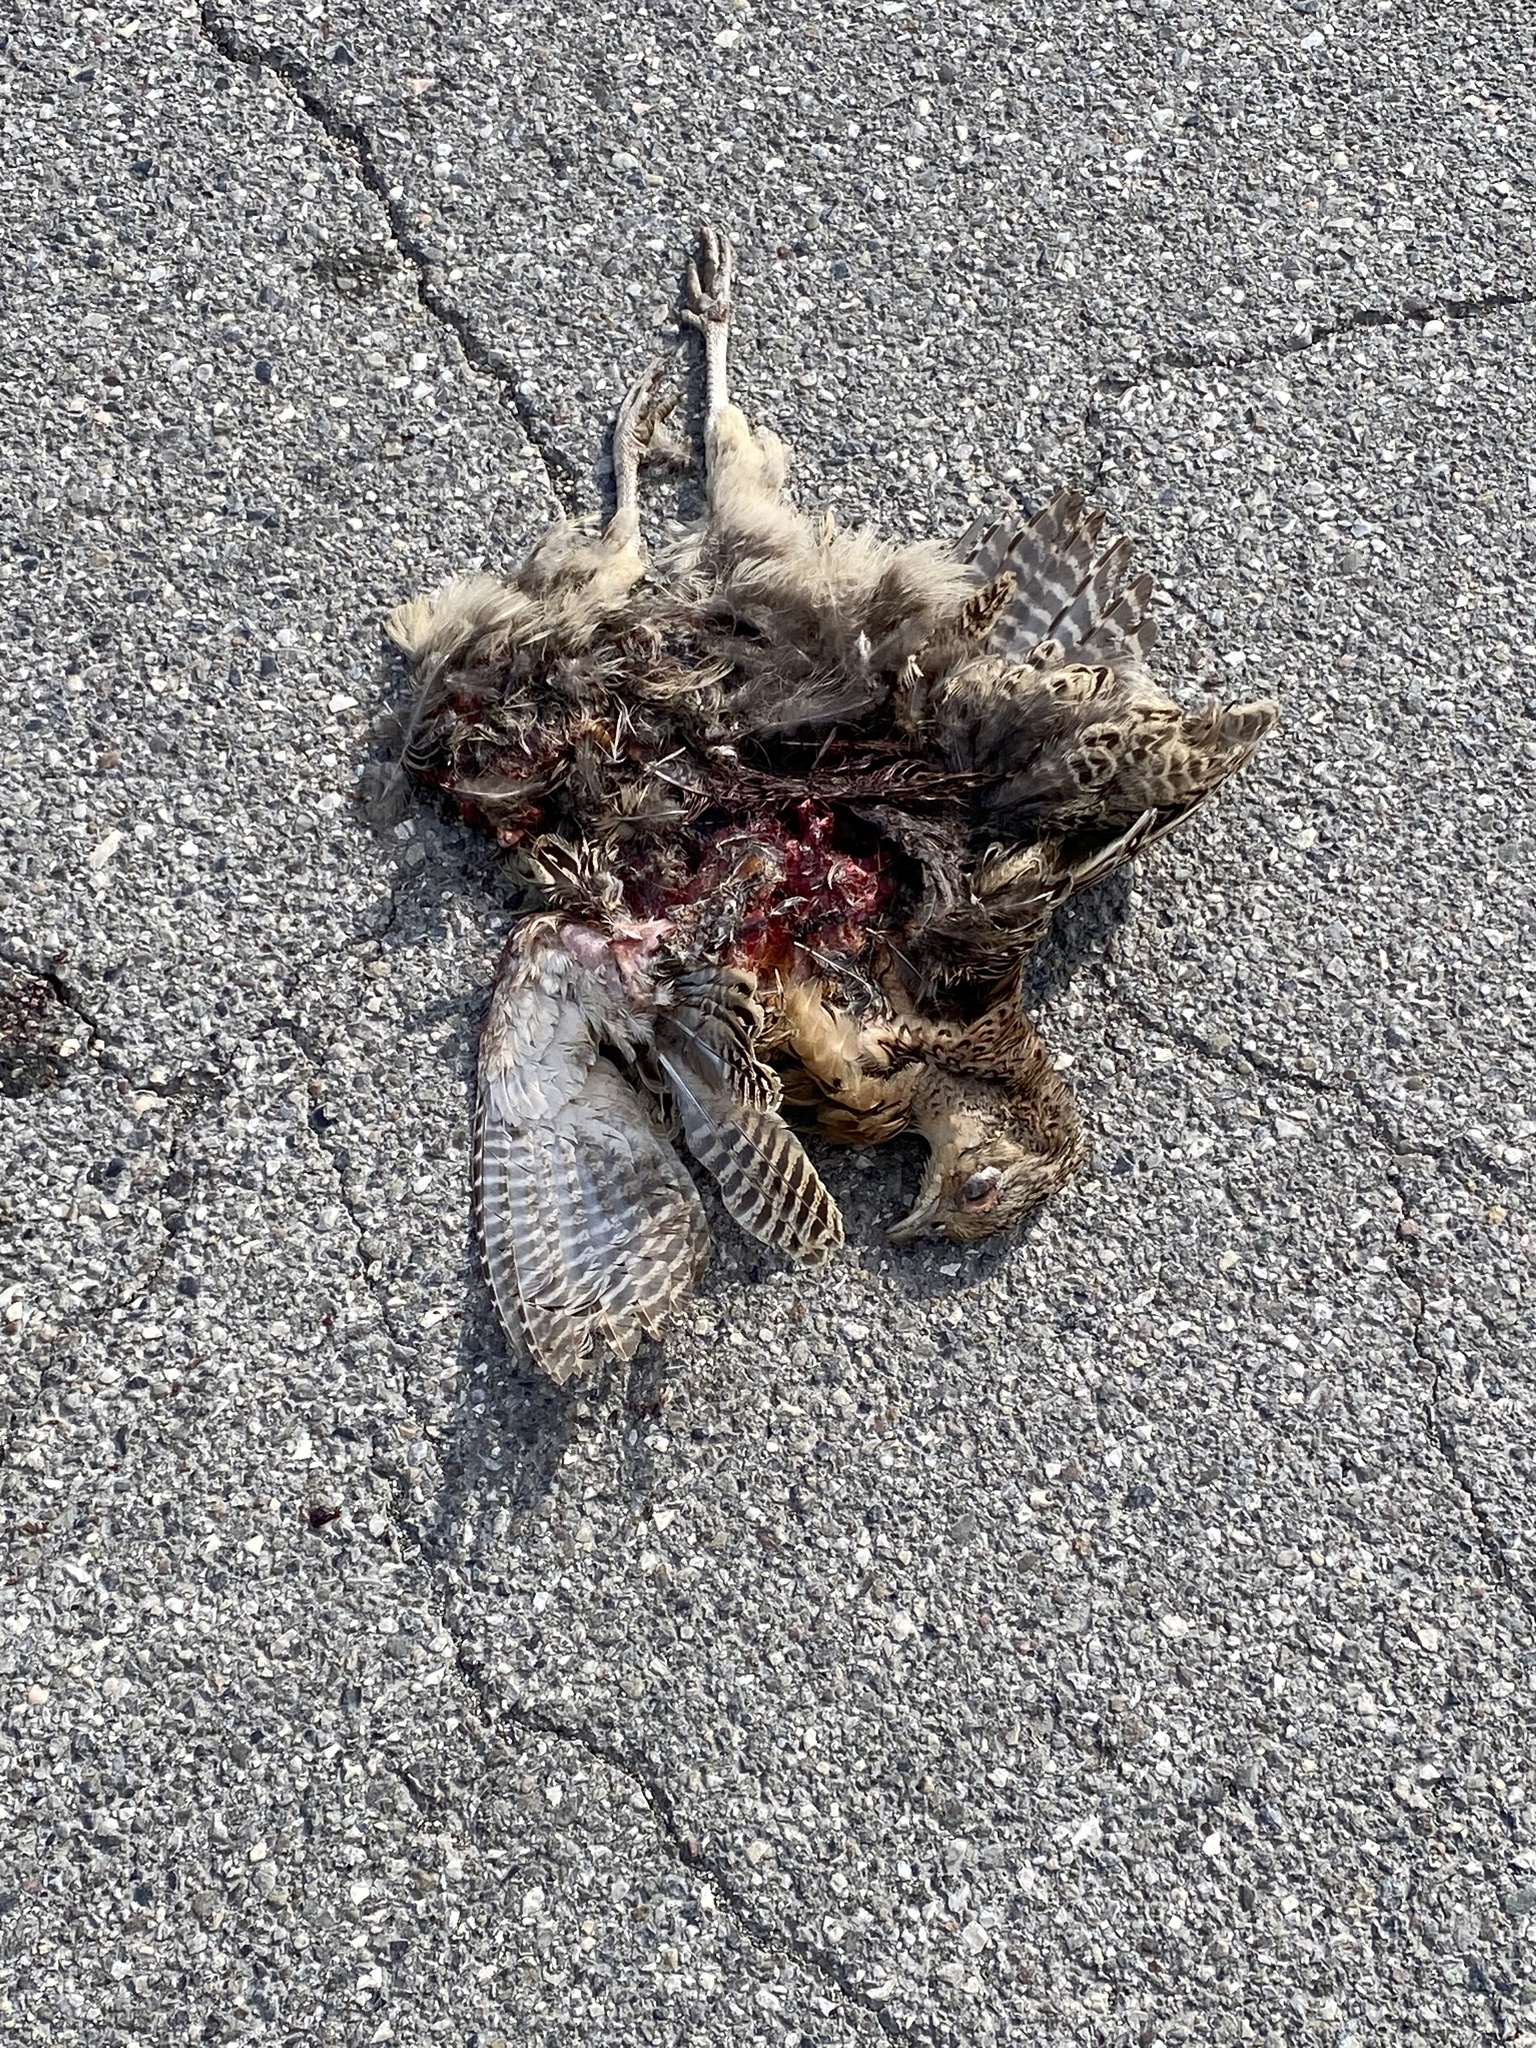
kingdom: Animalia
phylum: Chordata
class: Aves
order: Galliformes
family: Phasianidae
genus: Phasianus
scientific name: Phasianus colchicus
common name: Common pheasant
